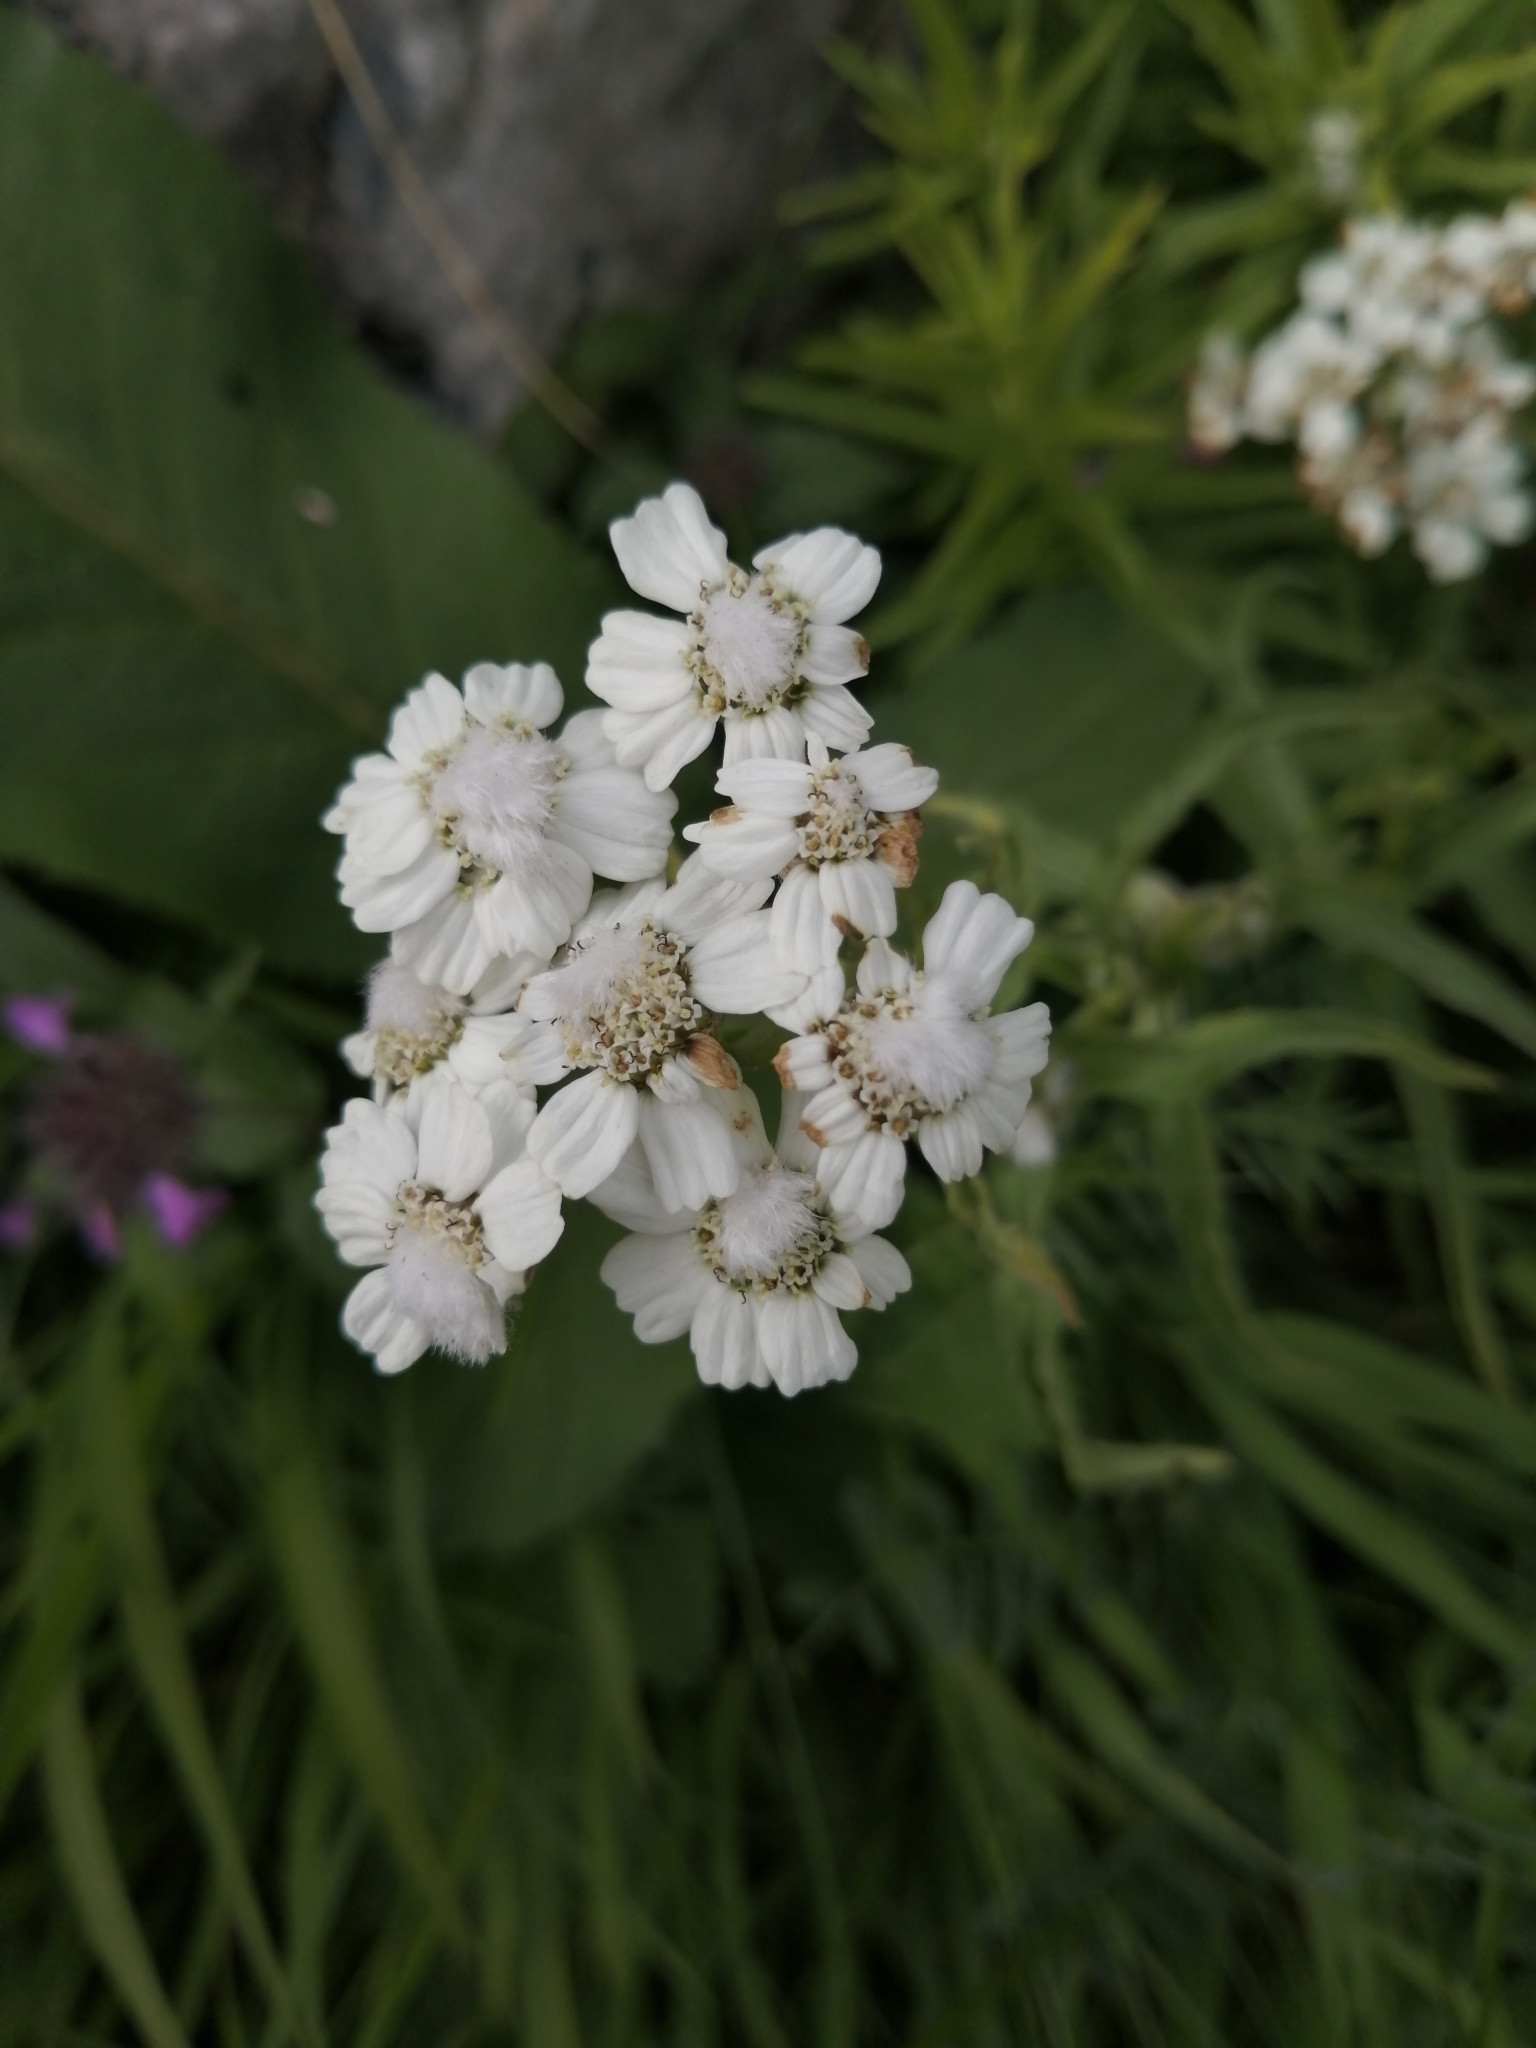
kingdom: Plantae
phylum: Tracheophyta
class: Magnoliopsida
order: Asterales
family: Asteraceae
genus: Achillea
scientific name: Achillea biserrata
